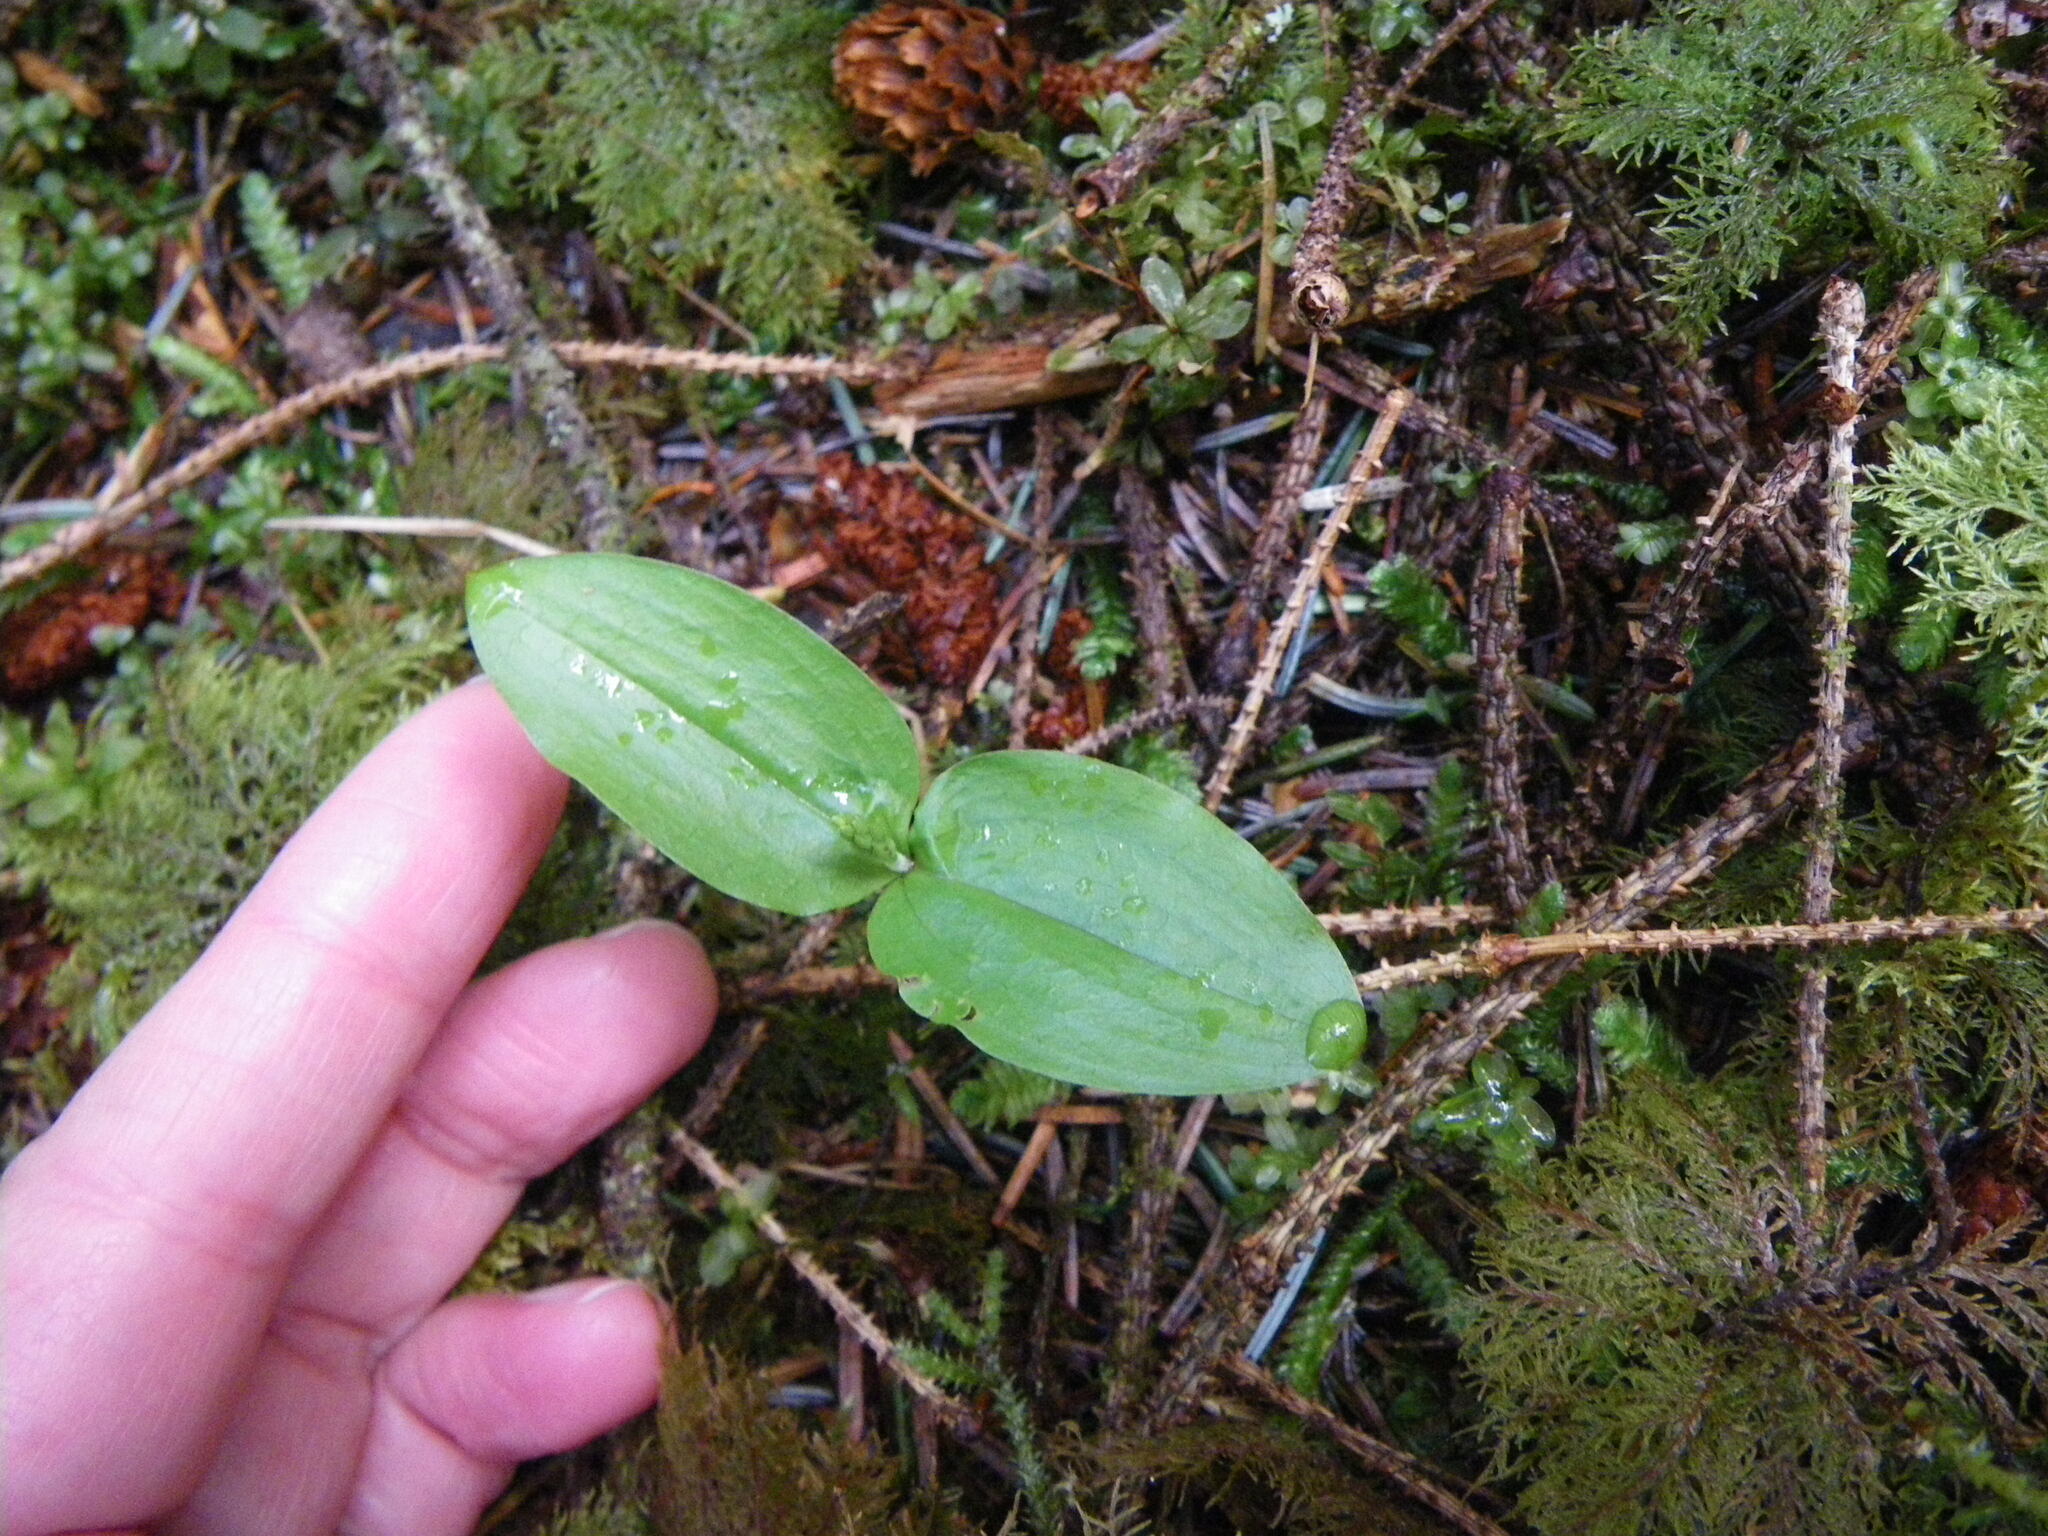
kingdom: Plantae
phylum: Tracheophyta
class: Liliopsida
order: Asparagales
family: Orchidaceae
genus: Neottia
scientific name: Neottia banksiana
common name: Northwestern twayblade
